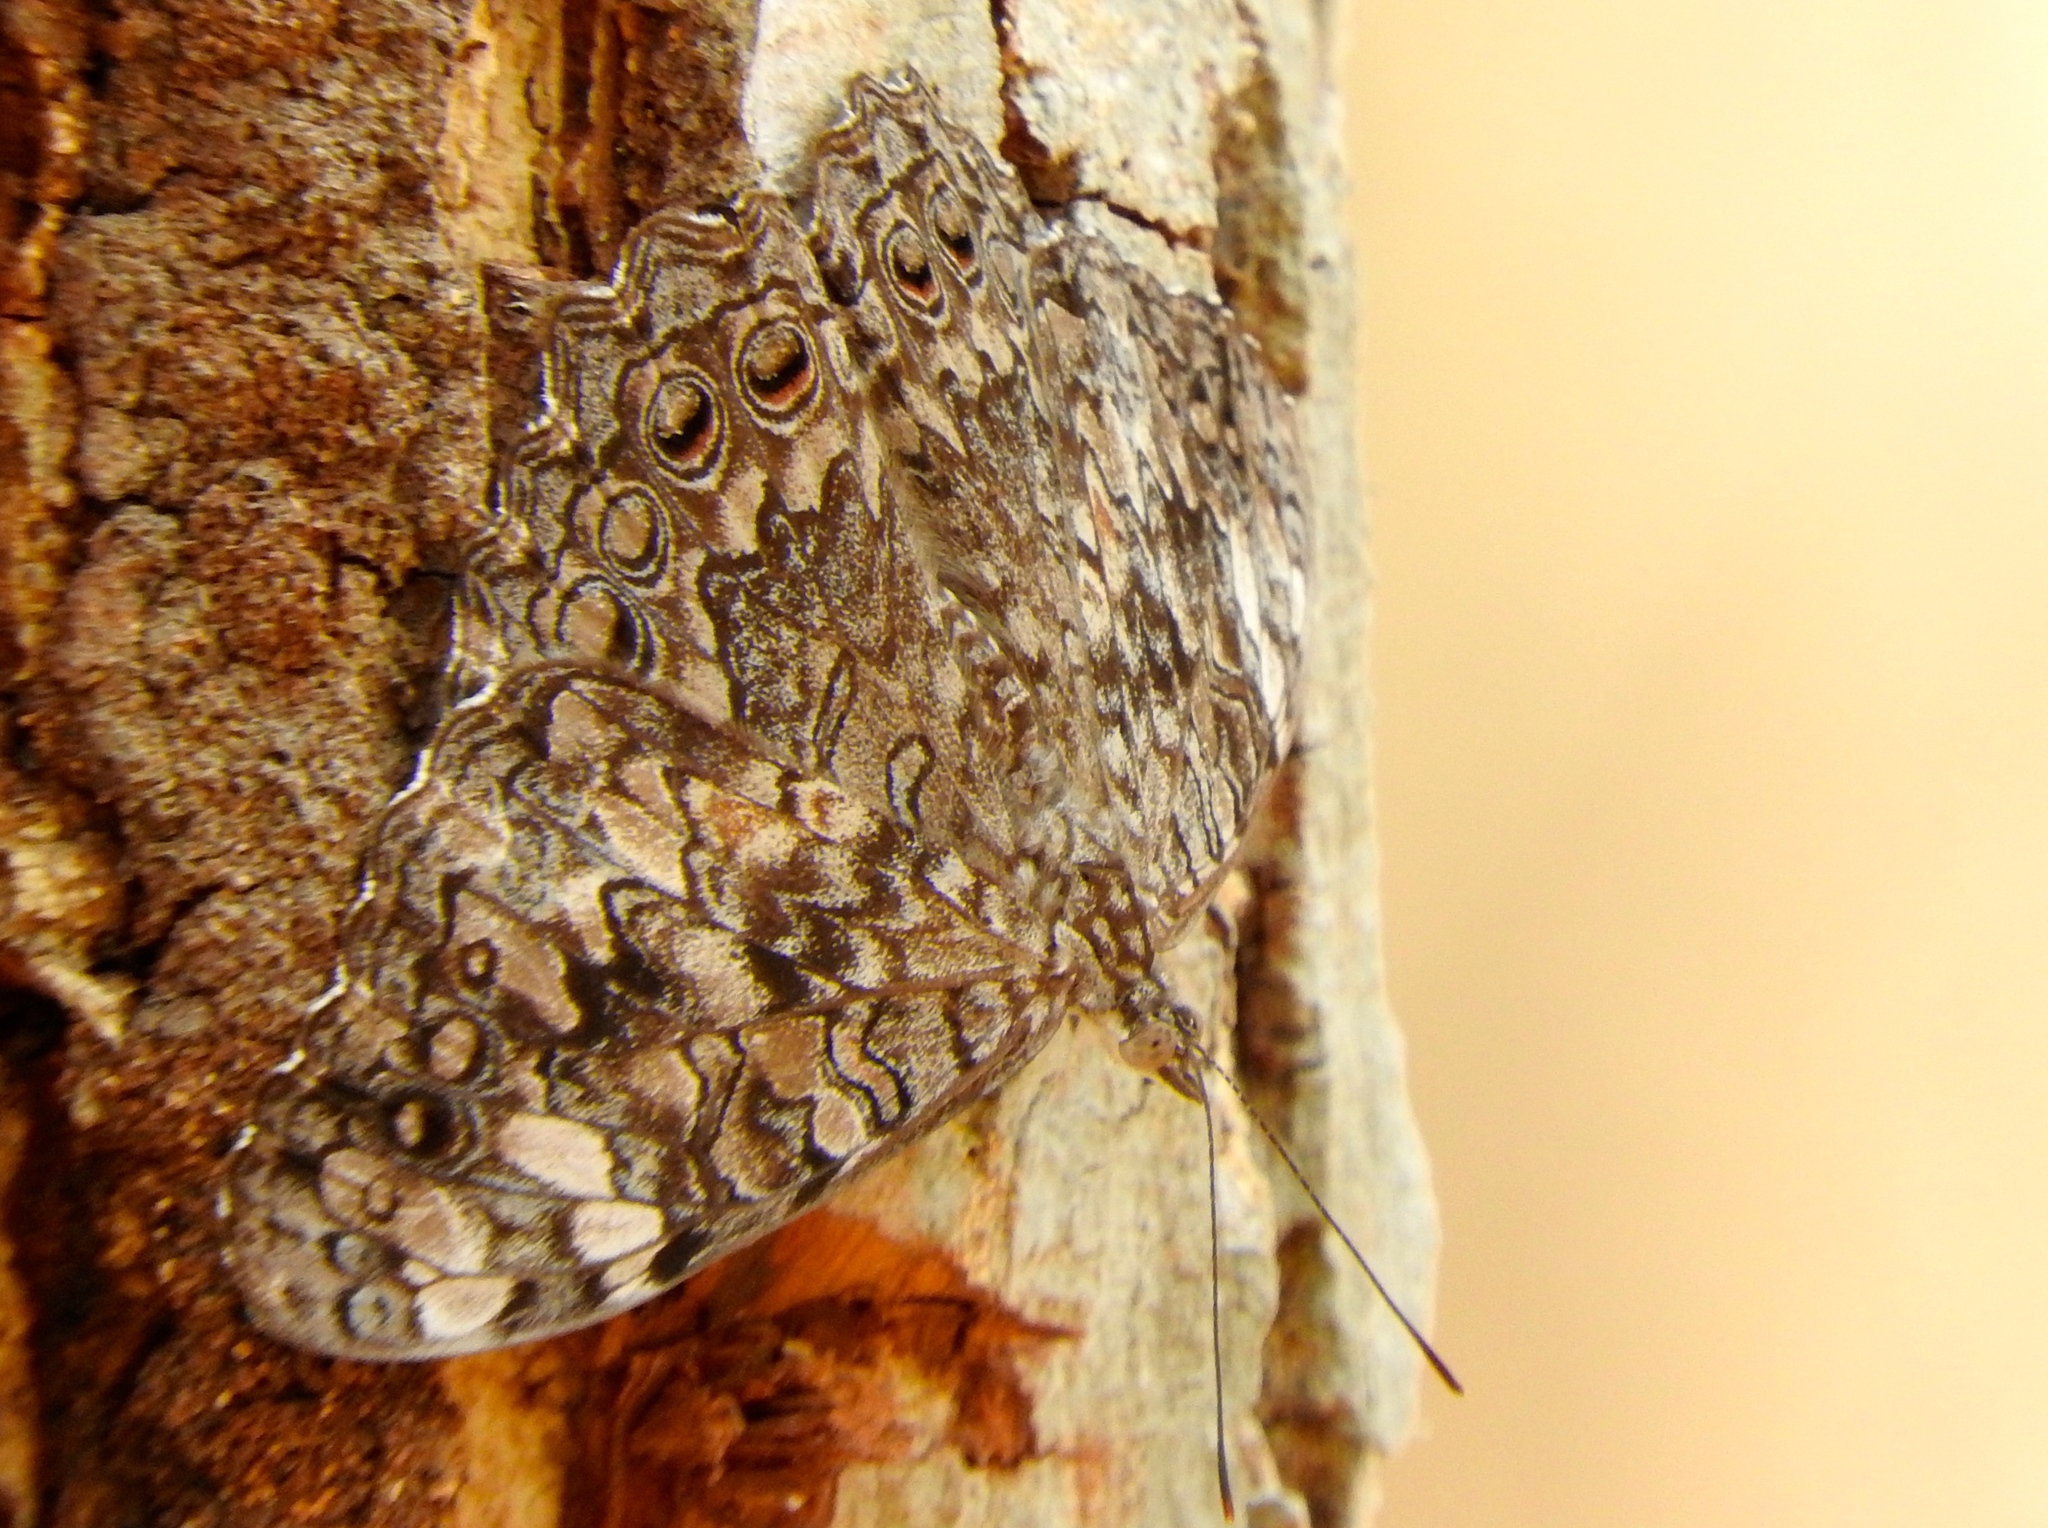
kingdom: Animalia
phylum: Arthropoda
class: Insecta
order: Lepidoptera
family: Nymphalidae
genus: Hamadryas
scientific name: Hamadryas februa
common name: Gray cracker
